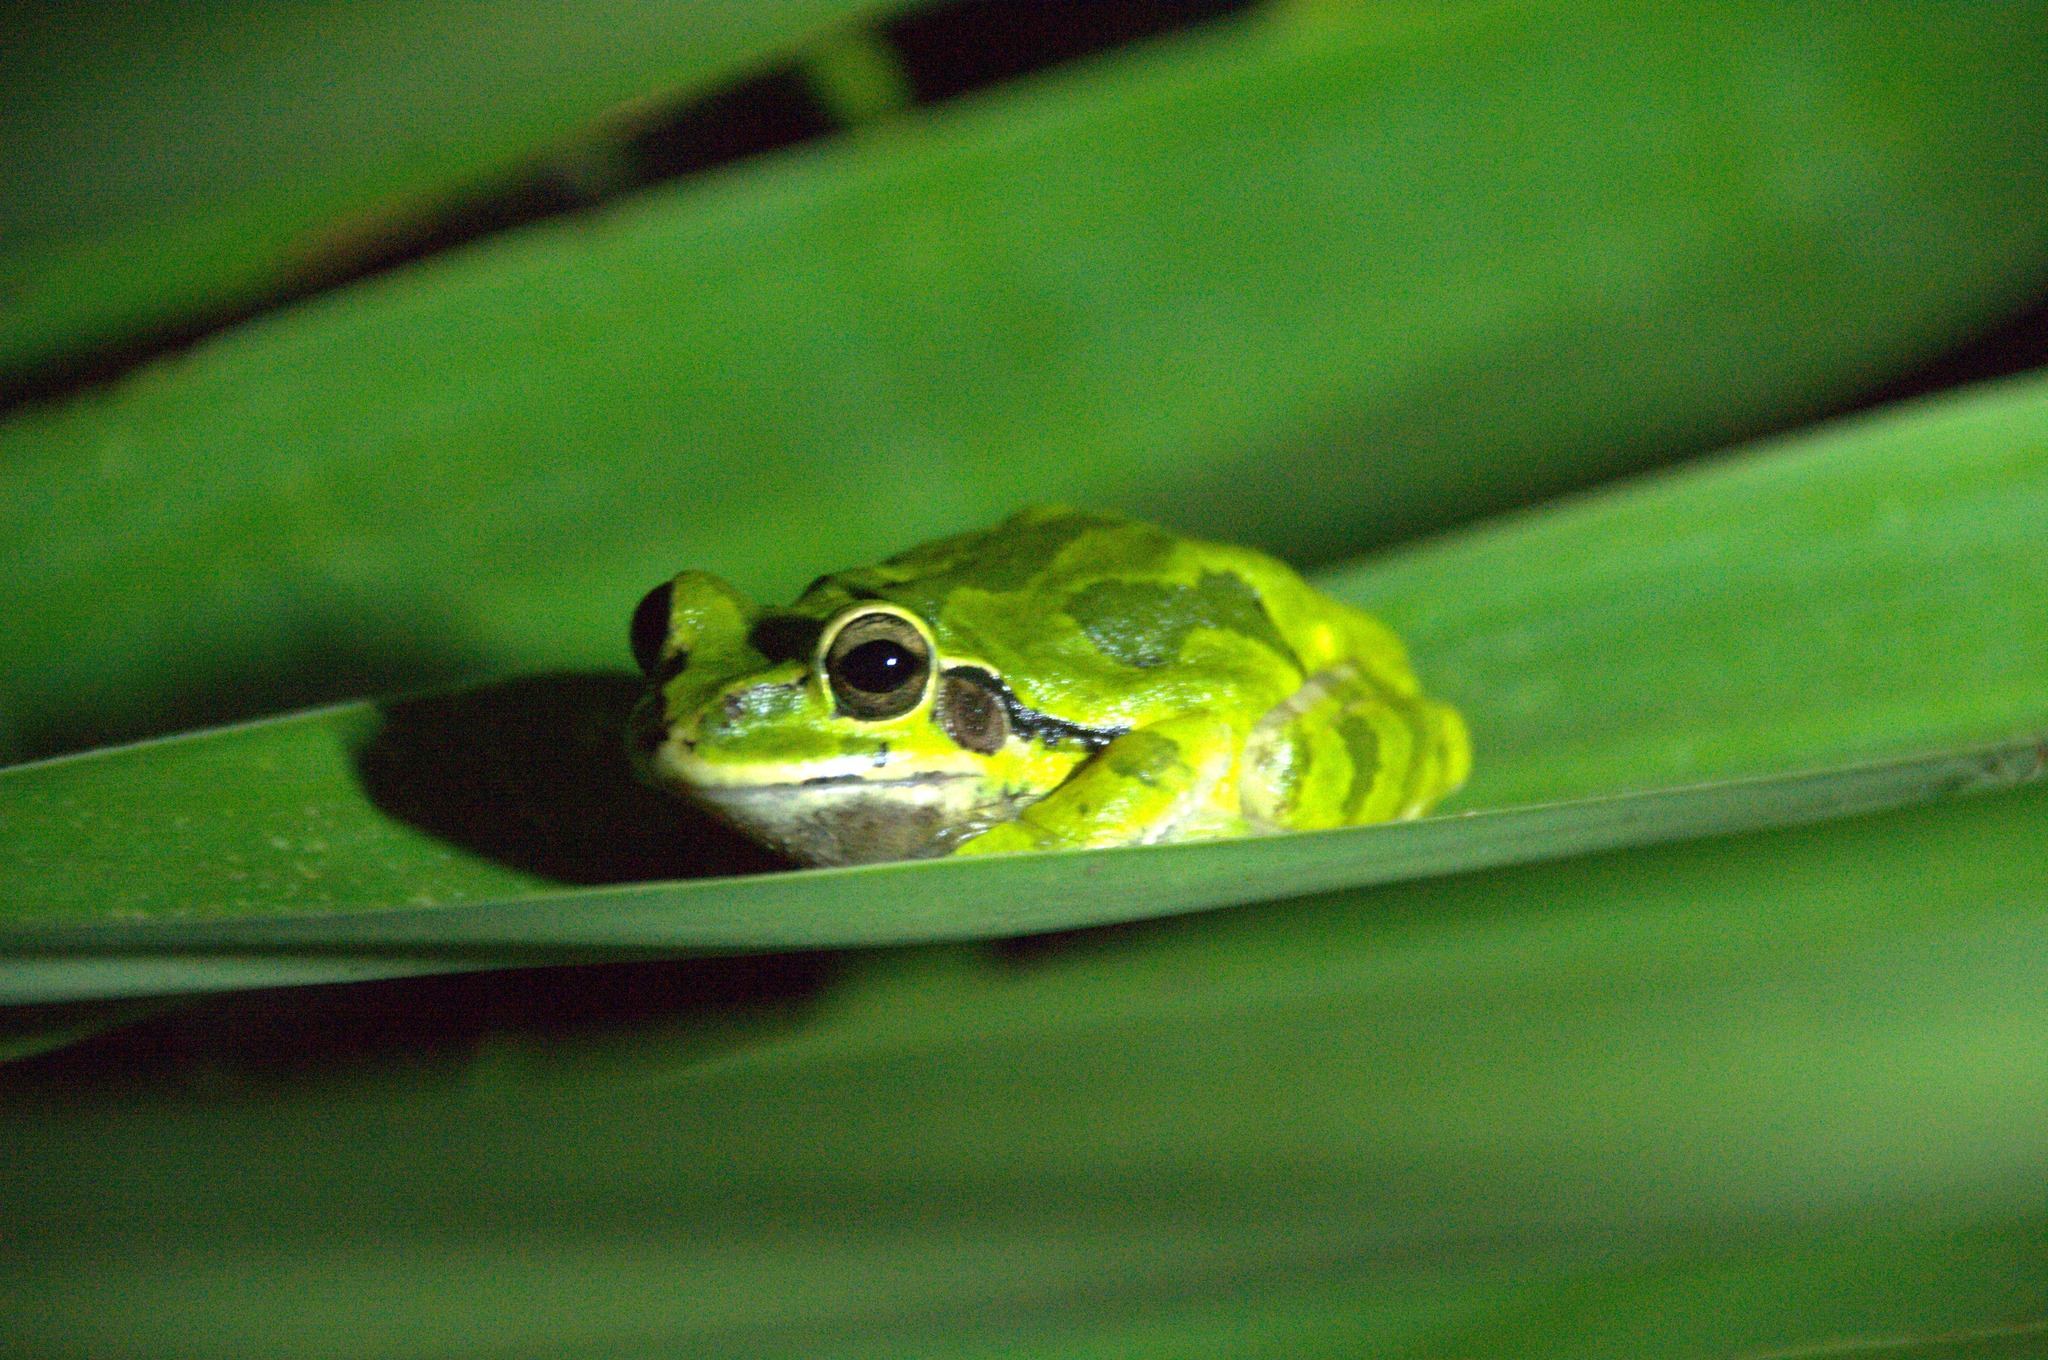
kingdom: Animalia
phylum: Chordata
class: Amphibia
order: Anura
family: Hylidae
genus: Smilisca
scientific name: Smilisca baudinii
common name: Mexican smilisca
